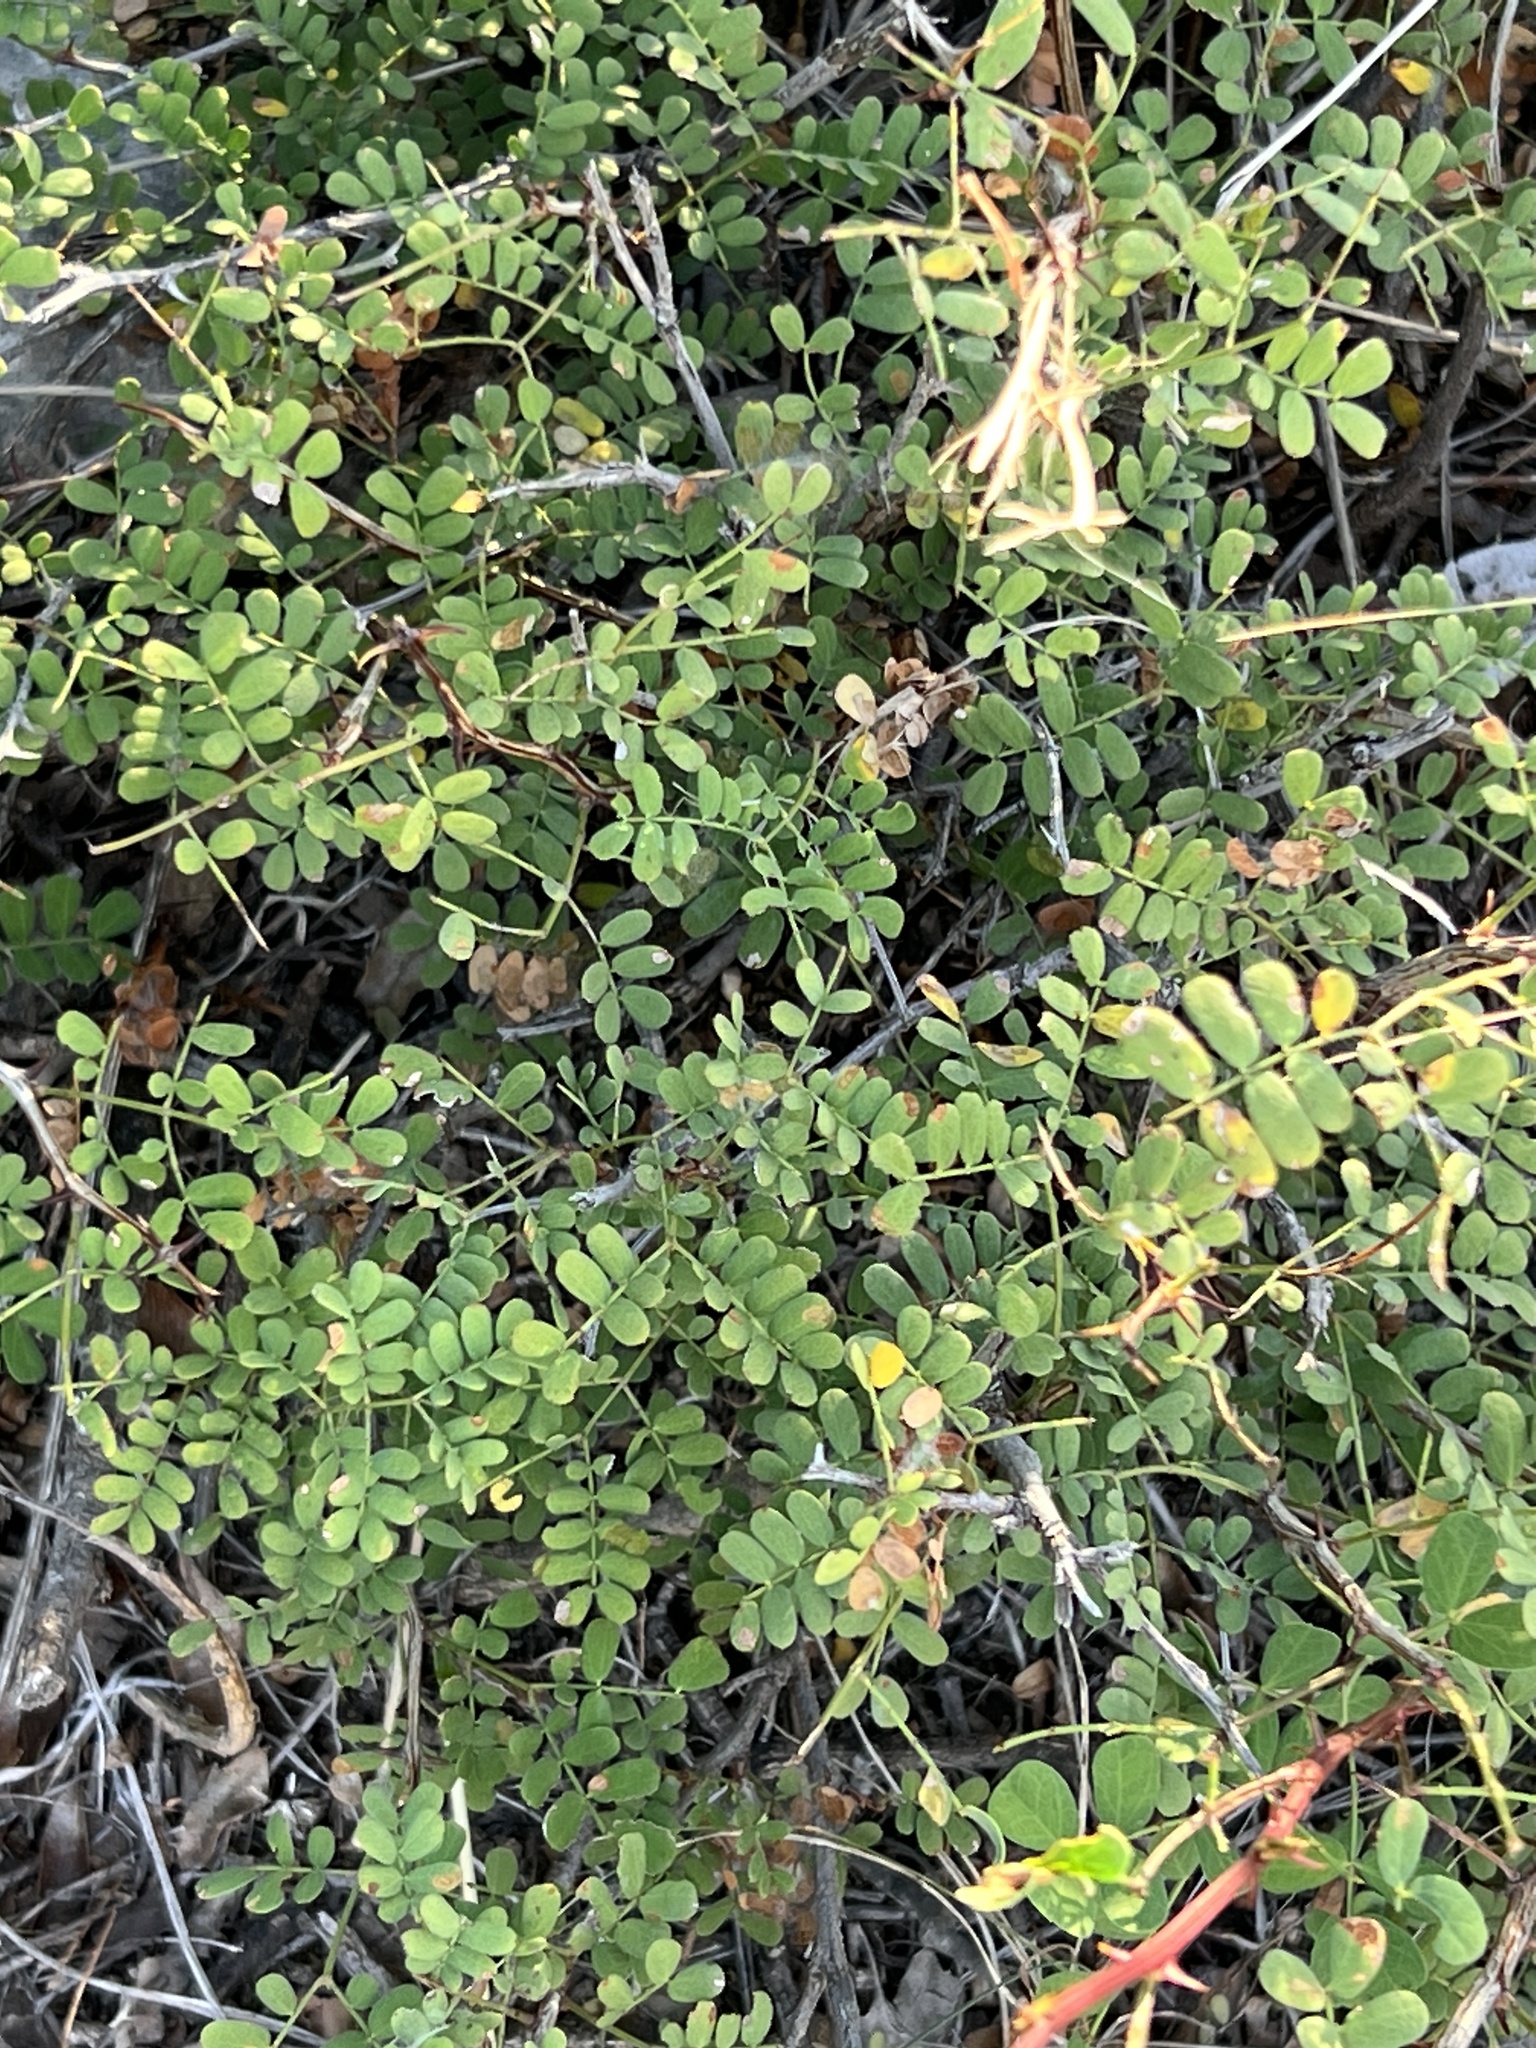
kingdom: Plantae
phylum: Tracheophyta
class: Magnoliopsida
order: Fabales
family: Fabaceae
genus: Senegalia
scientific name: Senegalia roemeriana
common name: Roemer's acacia
